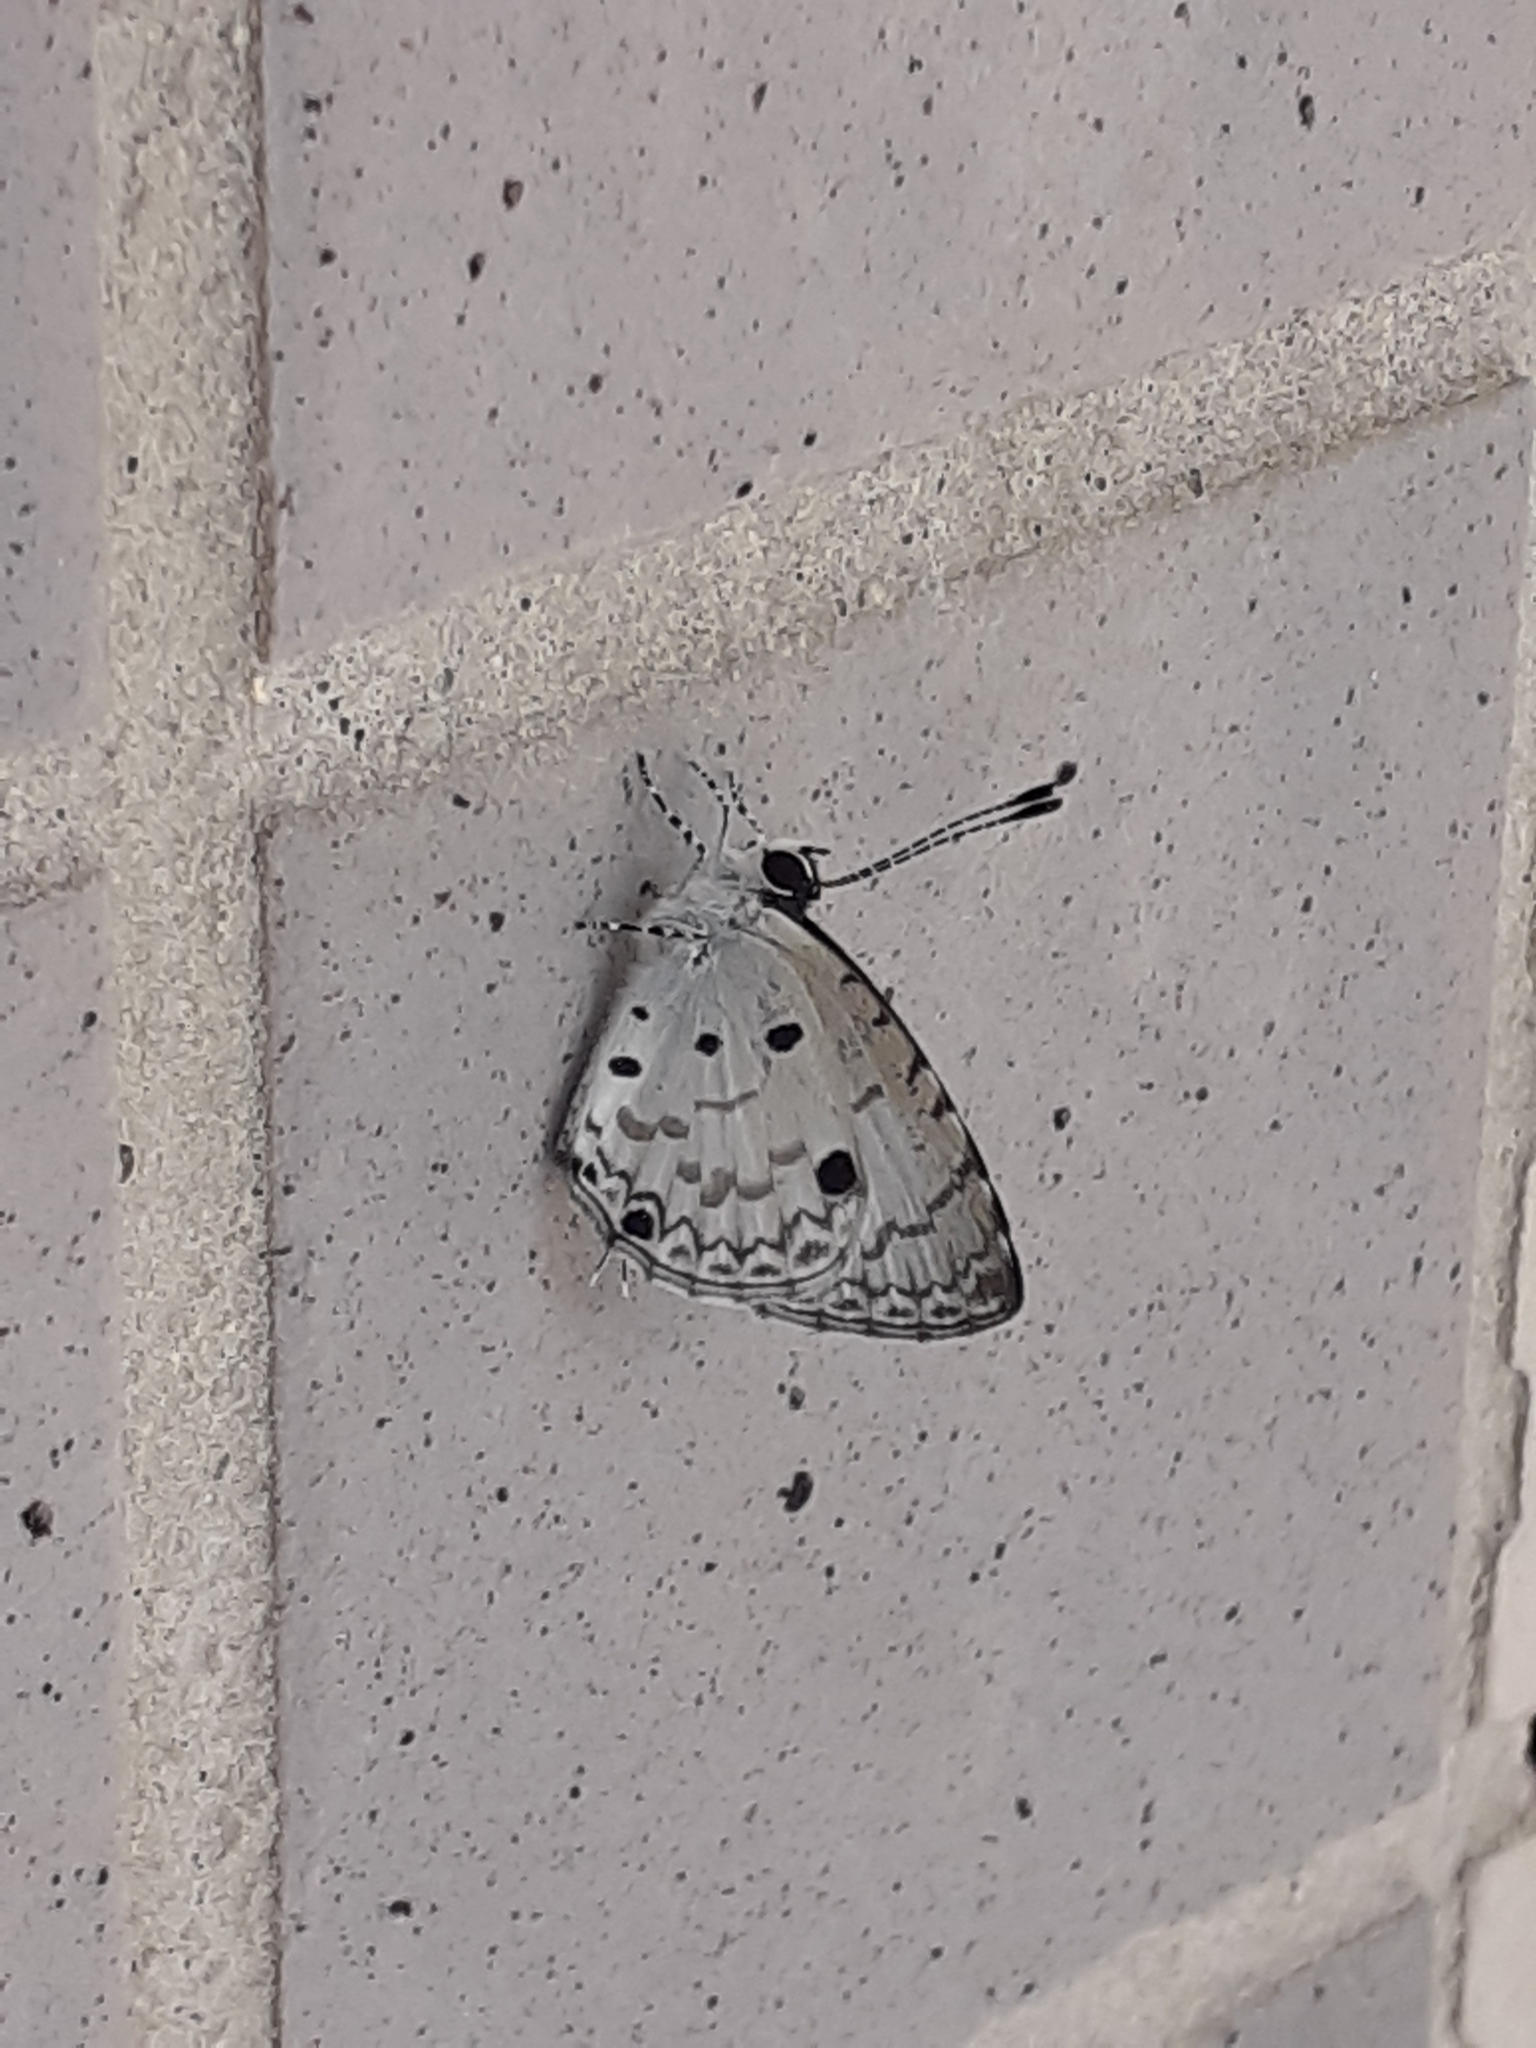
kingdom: Animalia
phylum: Arthropoda
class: Insecta
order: Lepidoptera
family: Lycaenidae
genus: Megisba
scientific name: Megisba malaya
